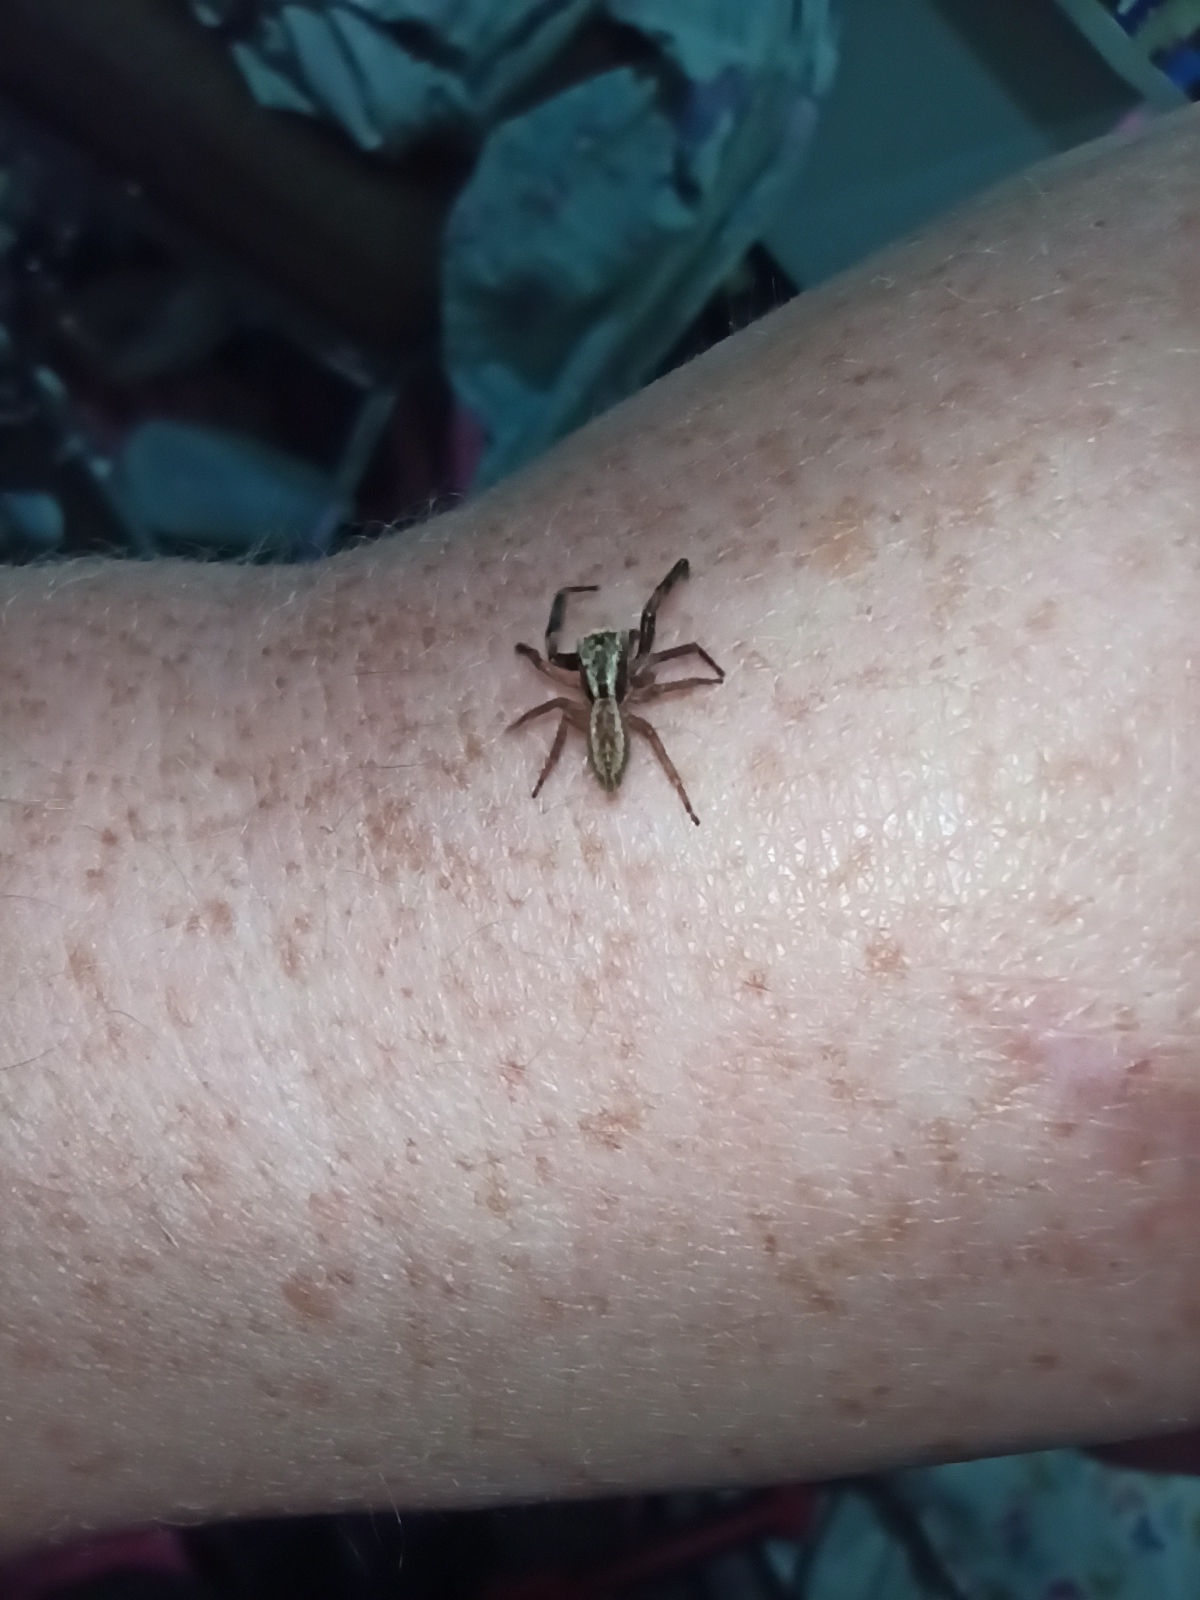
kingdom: Animalia
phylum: Arthropoda
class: Arachnida
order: Araneae
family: Salticidae
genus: Trite
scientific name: Trite auricoma
